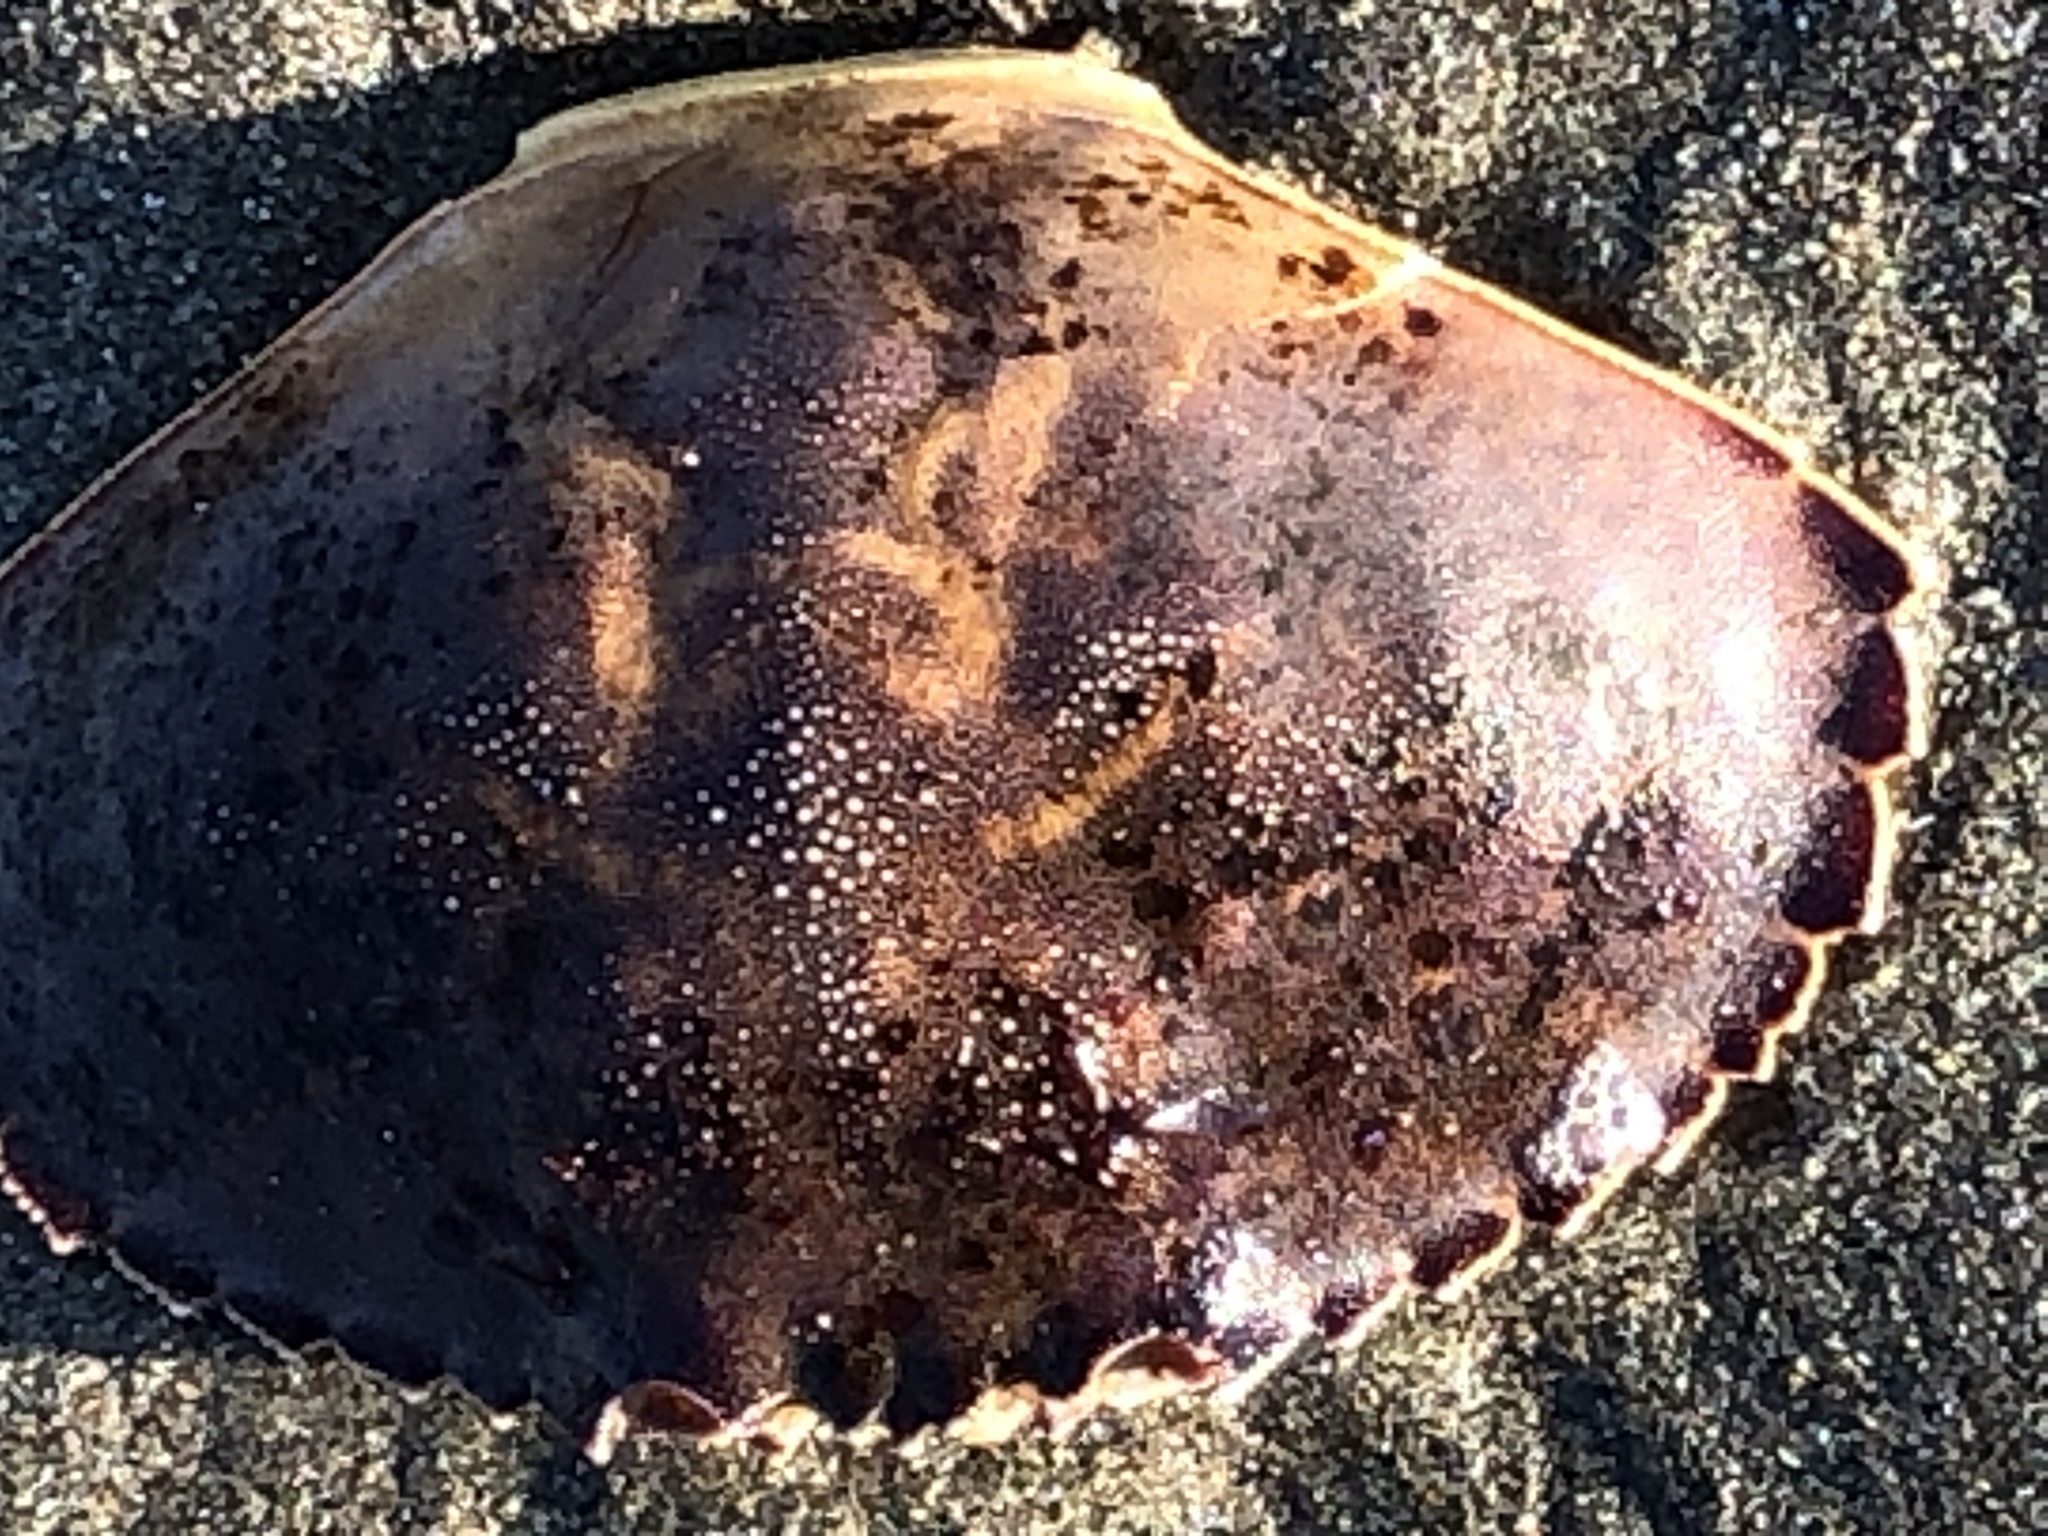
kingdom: Animalia
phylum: Arthropoda
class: Malacostraca
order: Decapoda
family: Cancridae
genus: Metacarcinus
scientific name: Metacarcinus gracilis
